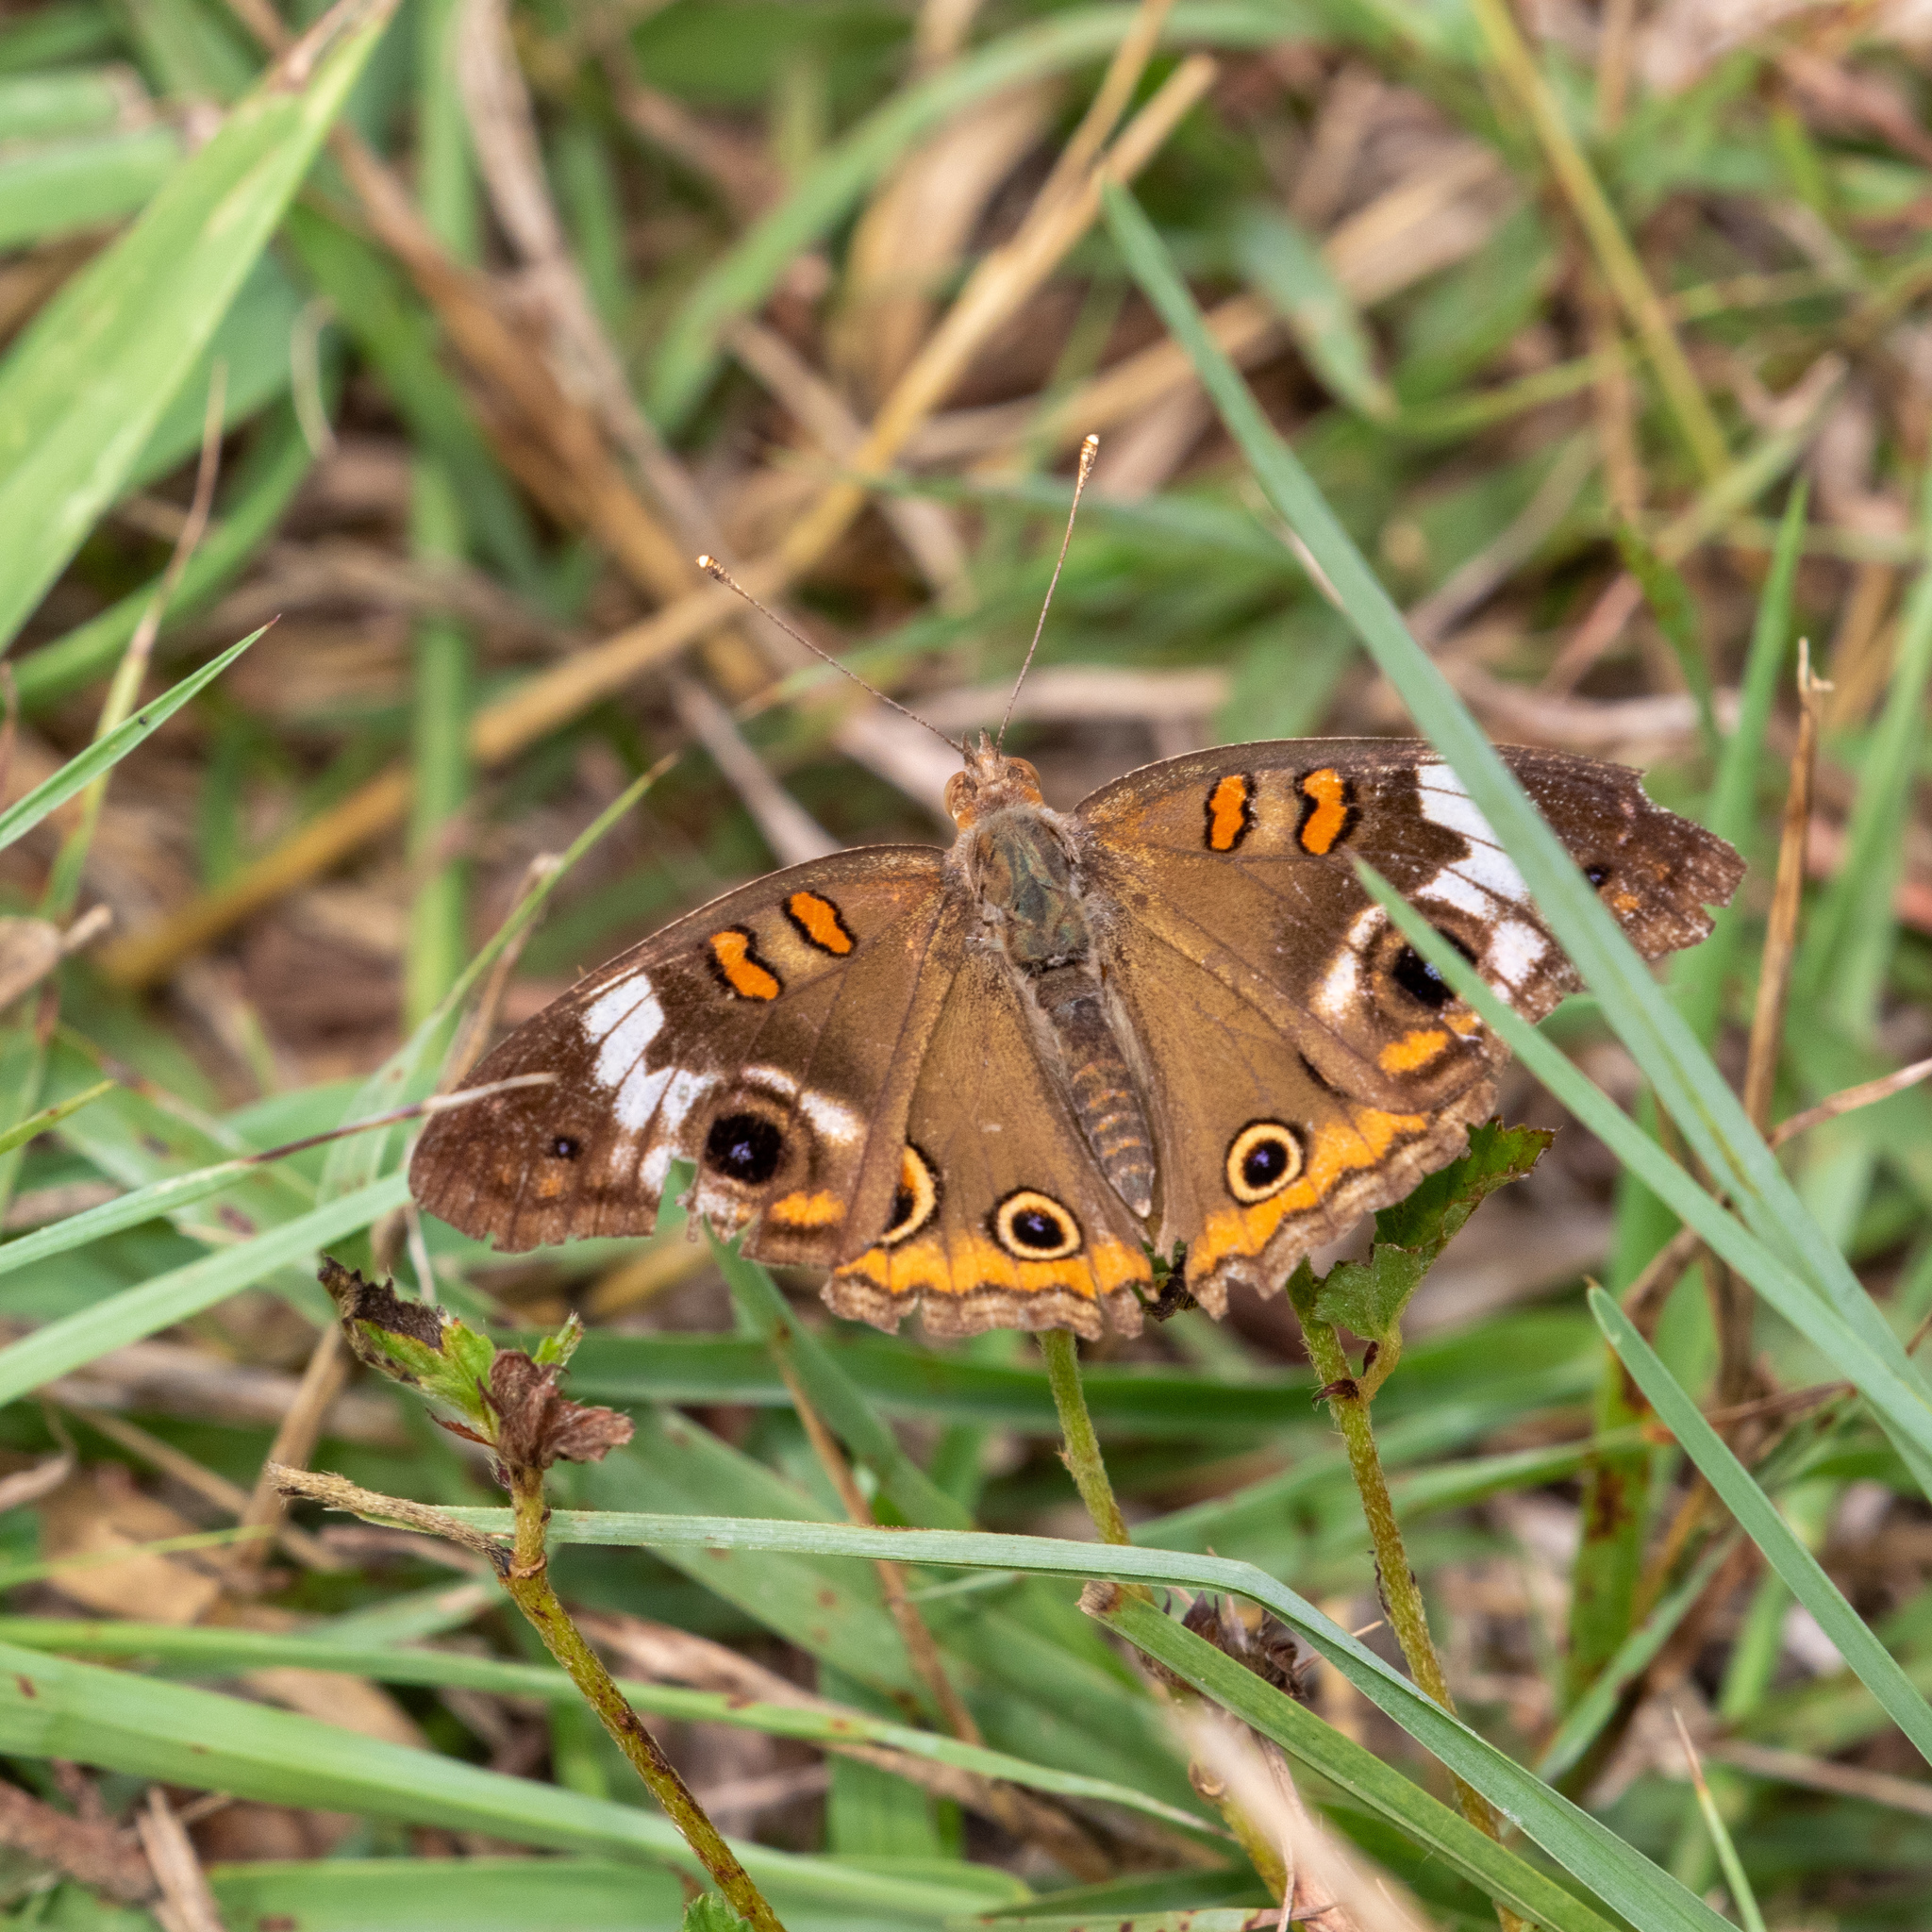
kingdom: Animalia
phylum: Arthropoda
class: Insecta
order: Lepidoptera
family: Nymphalidae
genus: Junonia
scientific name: Junonia coenia
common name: Common buckeye
